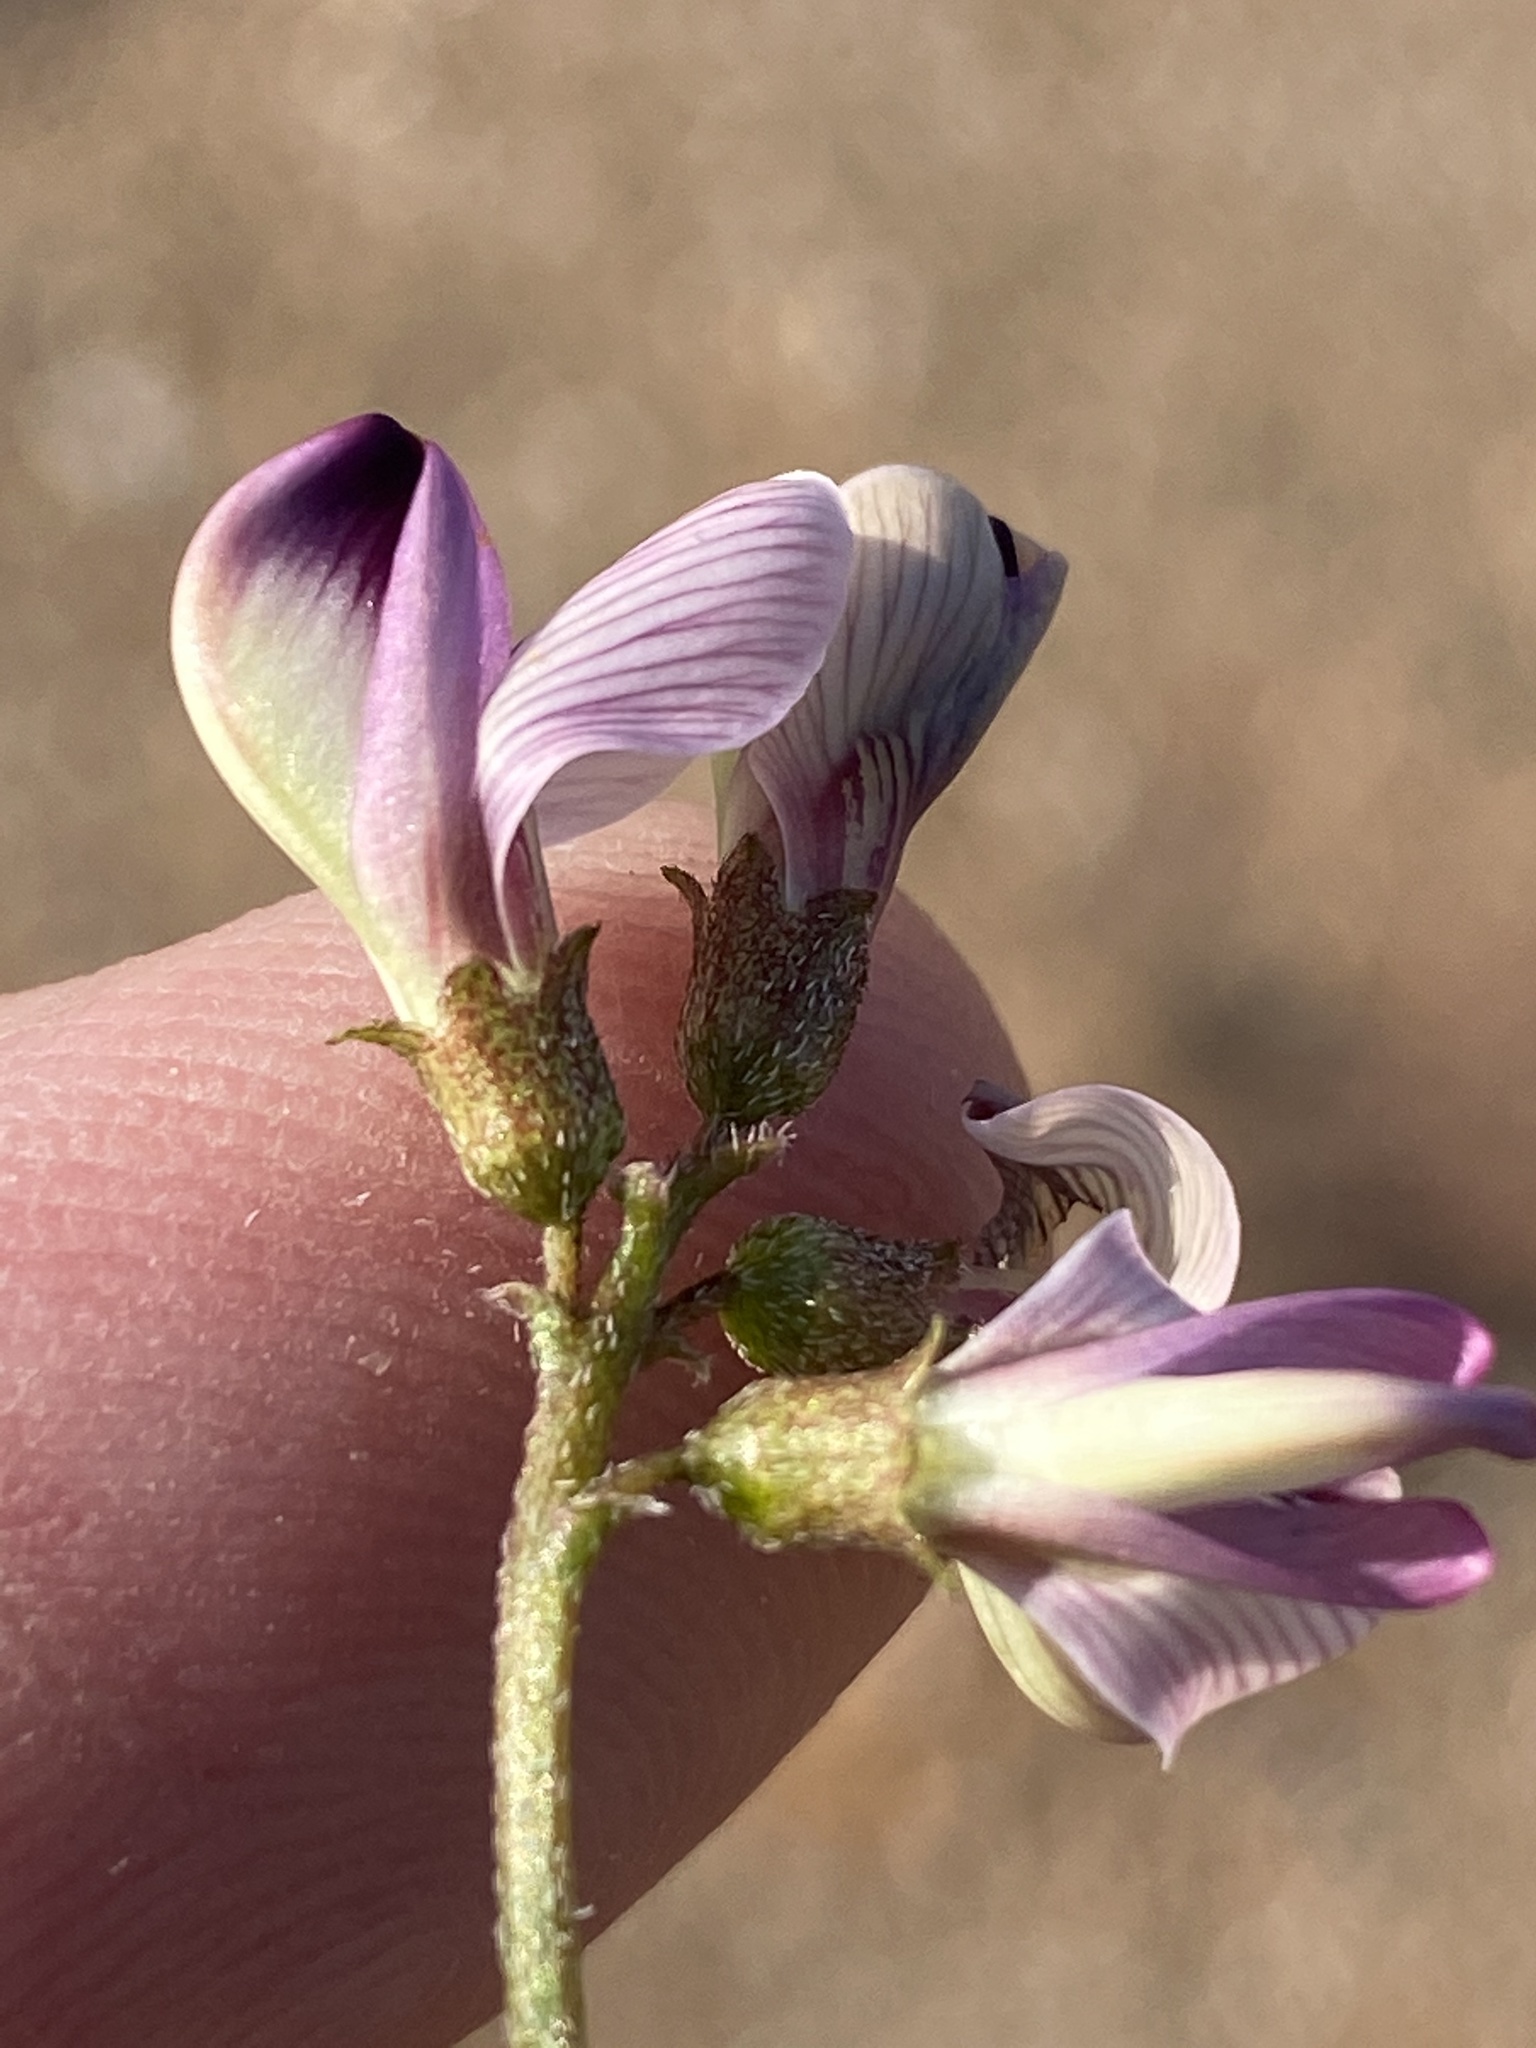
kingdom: Plantae
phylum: Tracheophyta
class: Magnoliopsida
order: Fabales
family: Fabaceae
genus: Lessertia
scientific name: Lessertia annularis
